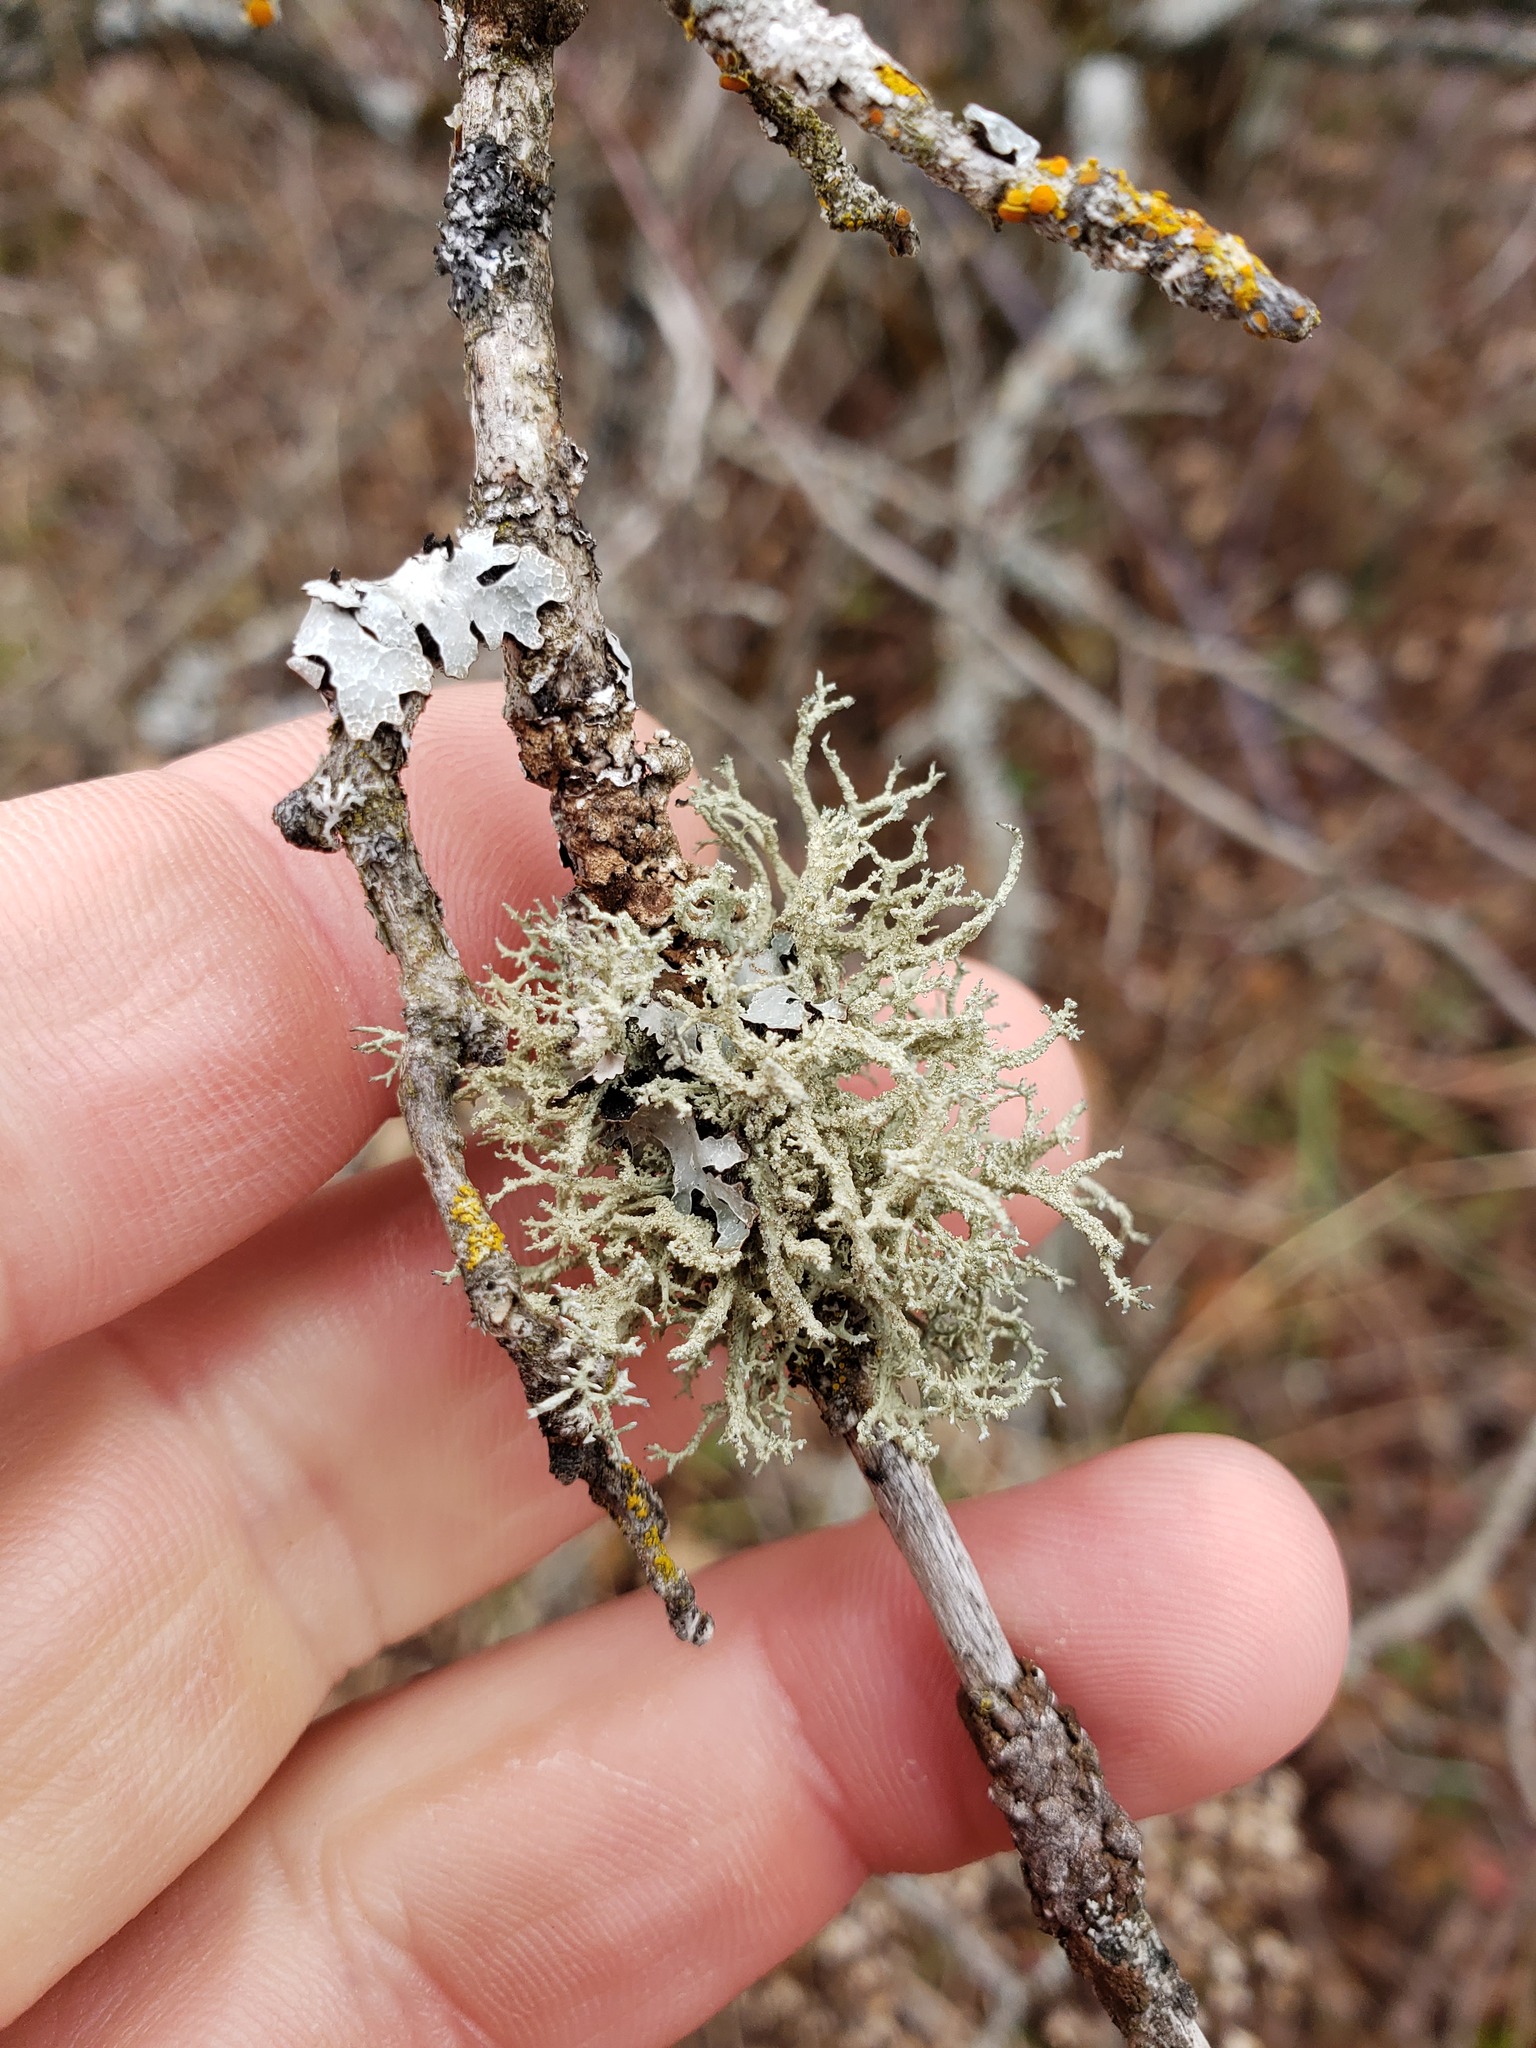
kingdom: Fungi
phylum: Ascomycota
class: Lecanoromycetes
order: Lecanorales
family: Parmeliaceae
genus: Evernia
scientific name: Evernia mesomorpha
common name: Boreal oak moss lichen
